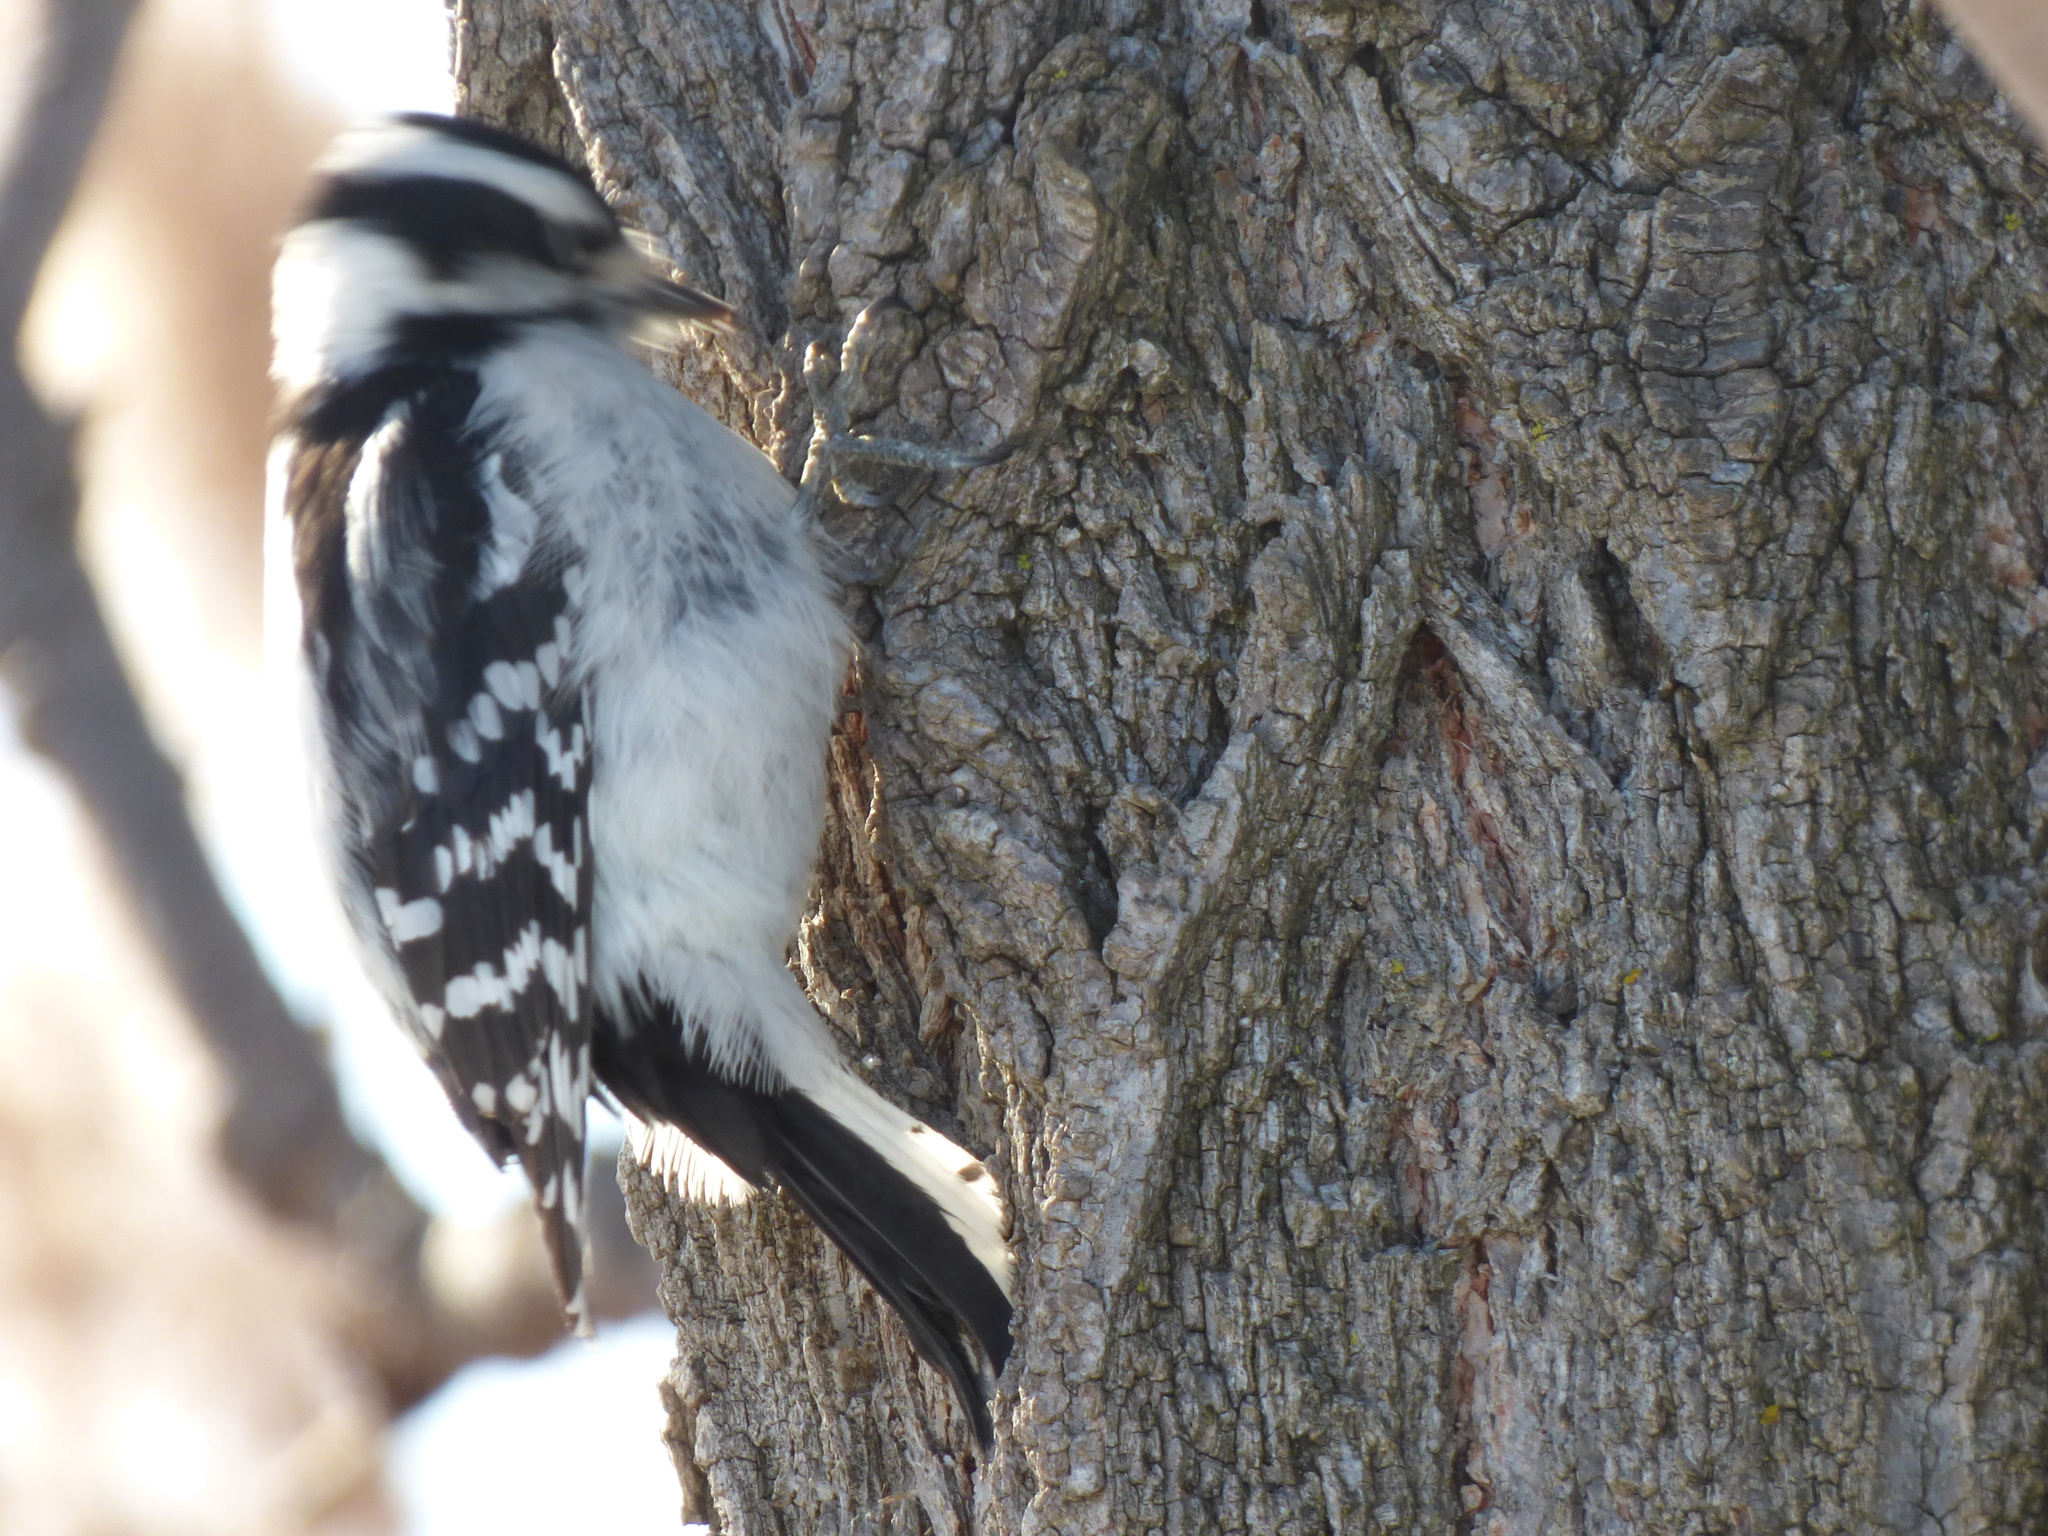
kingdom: Animalia
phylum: Chordata
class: Aves
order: Piciformes
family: Picidae
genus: Dryobates
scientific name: Dryobates pubescens
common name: Downy woodpecker
